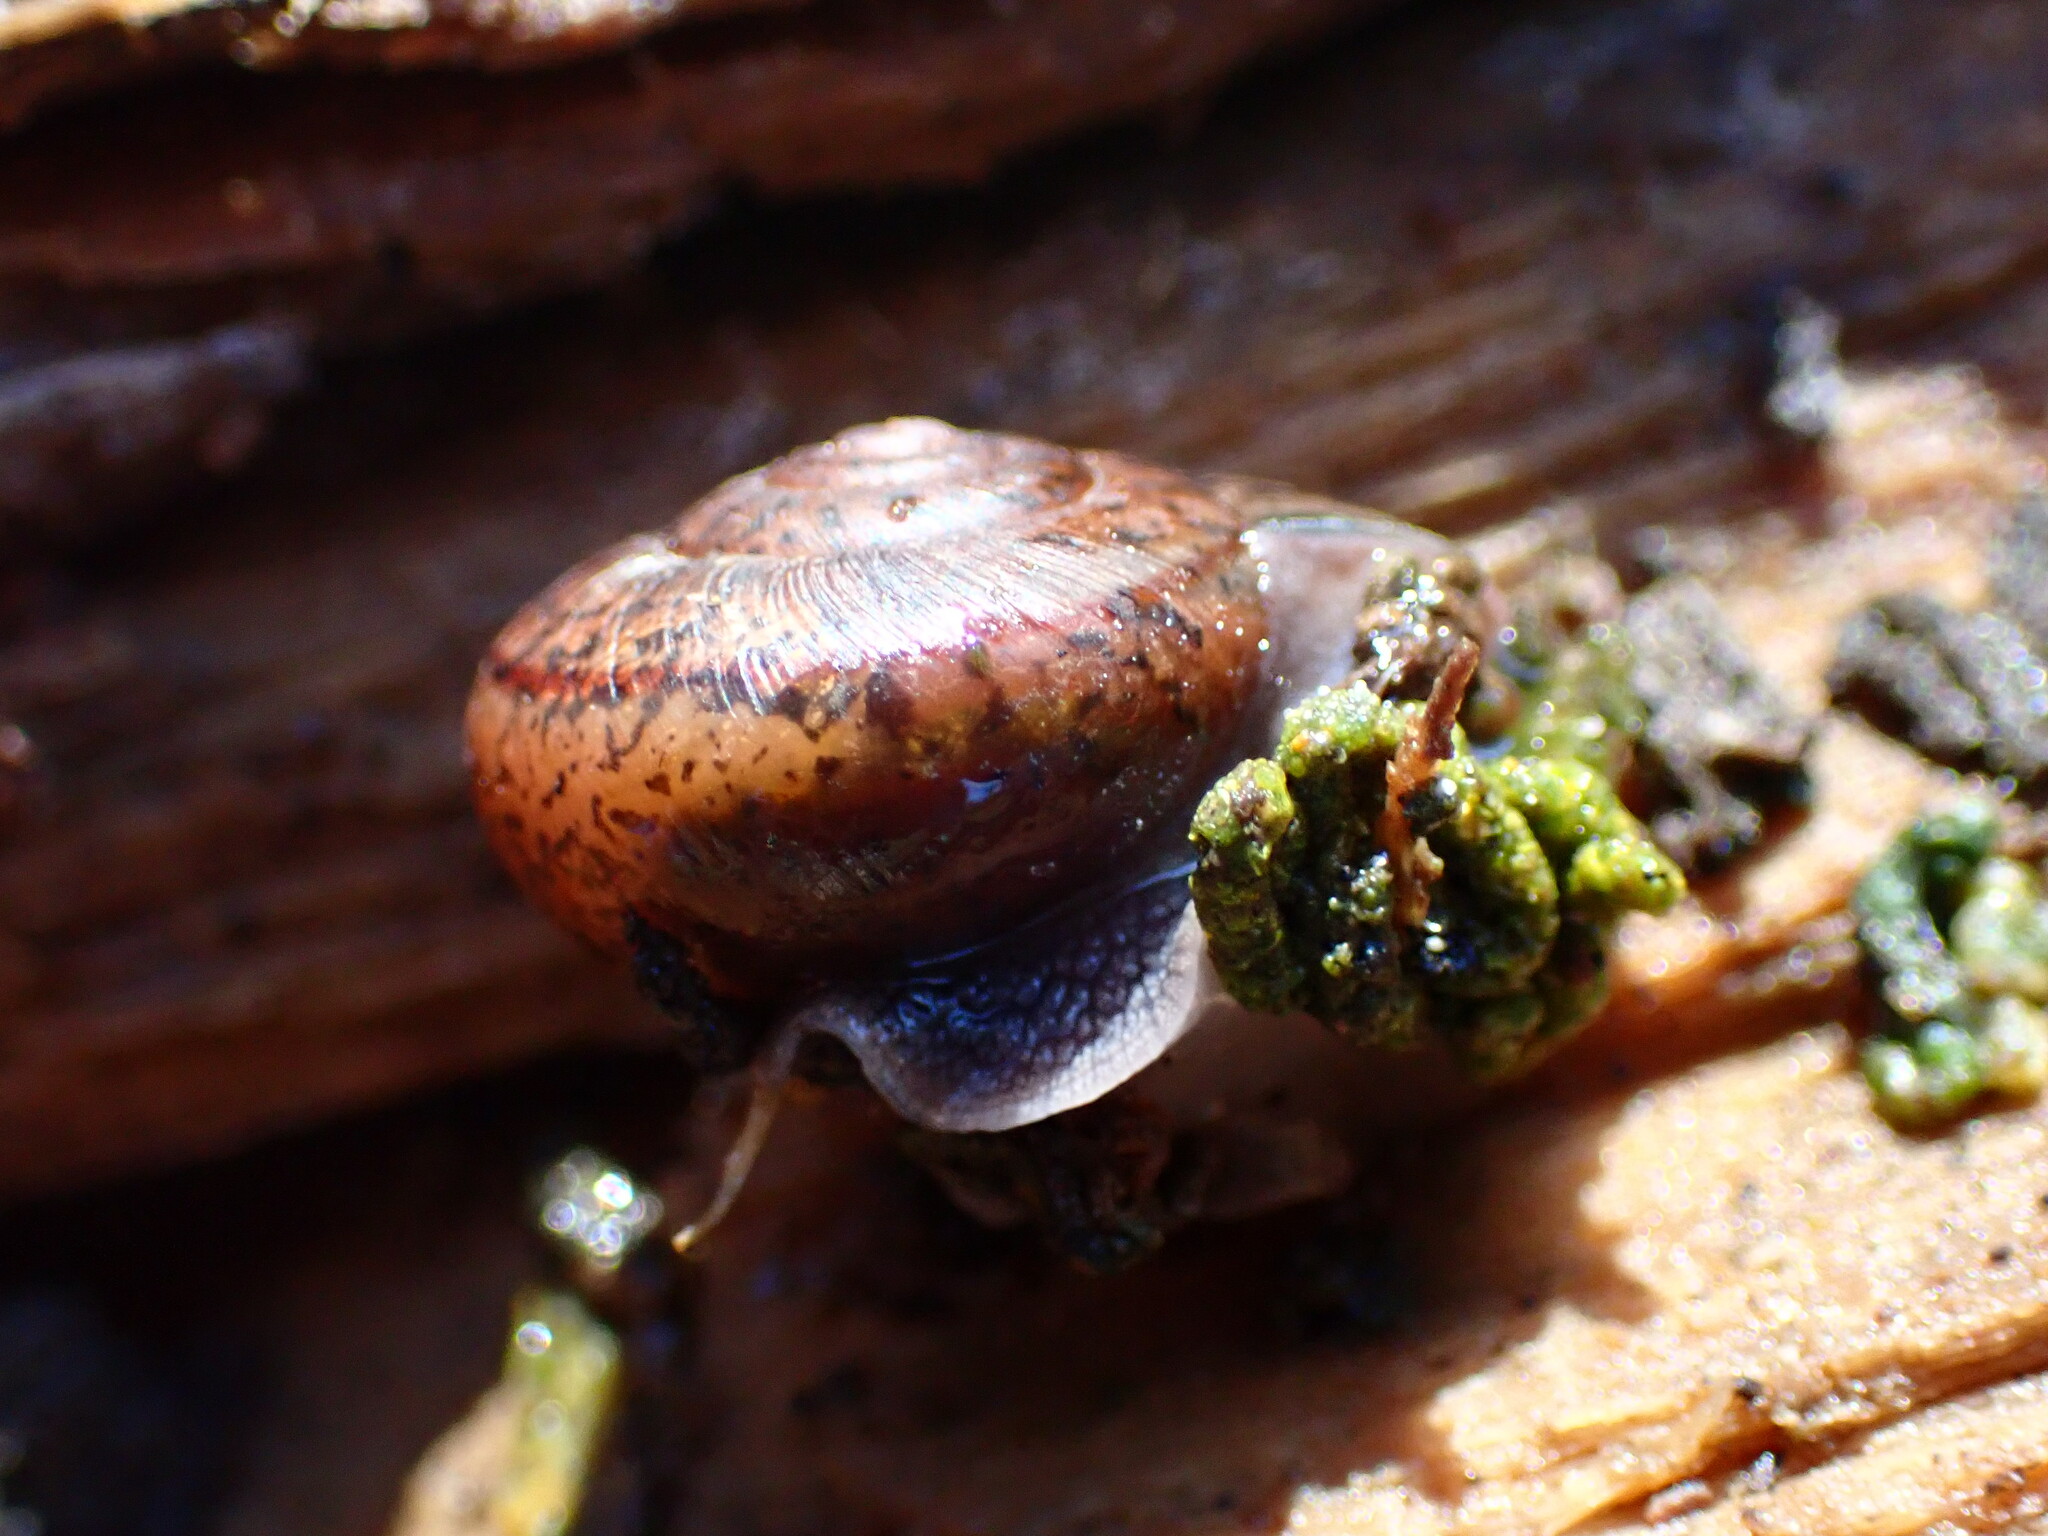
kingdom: Animalia
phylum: Mollusca
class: Gastropoda
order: Stylommatophora
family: Xanthonychidae
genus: Helminthoglypta
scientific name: Helminthoglypta cypreophila
